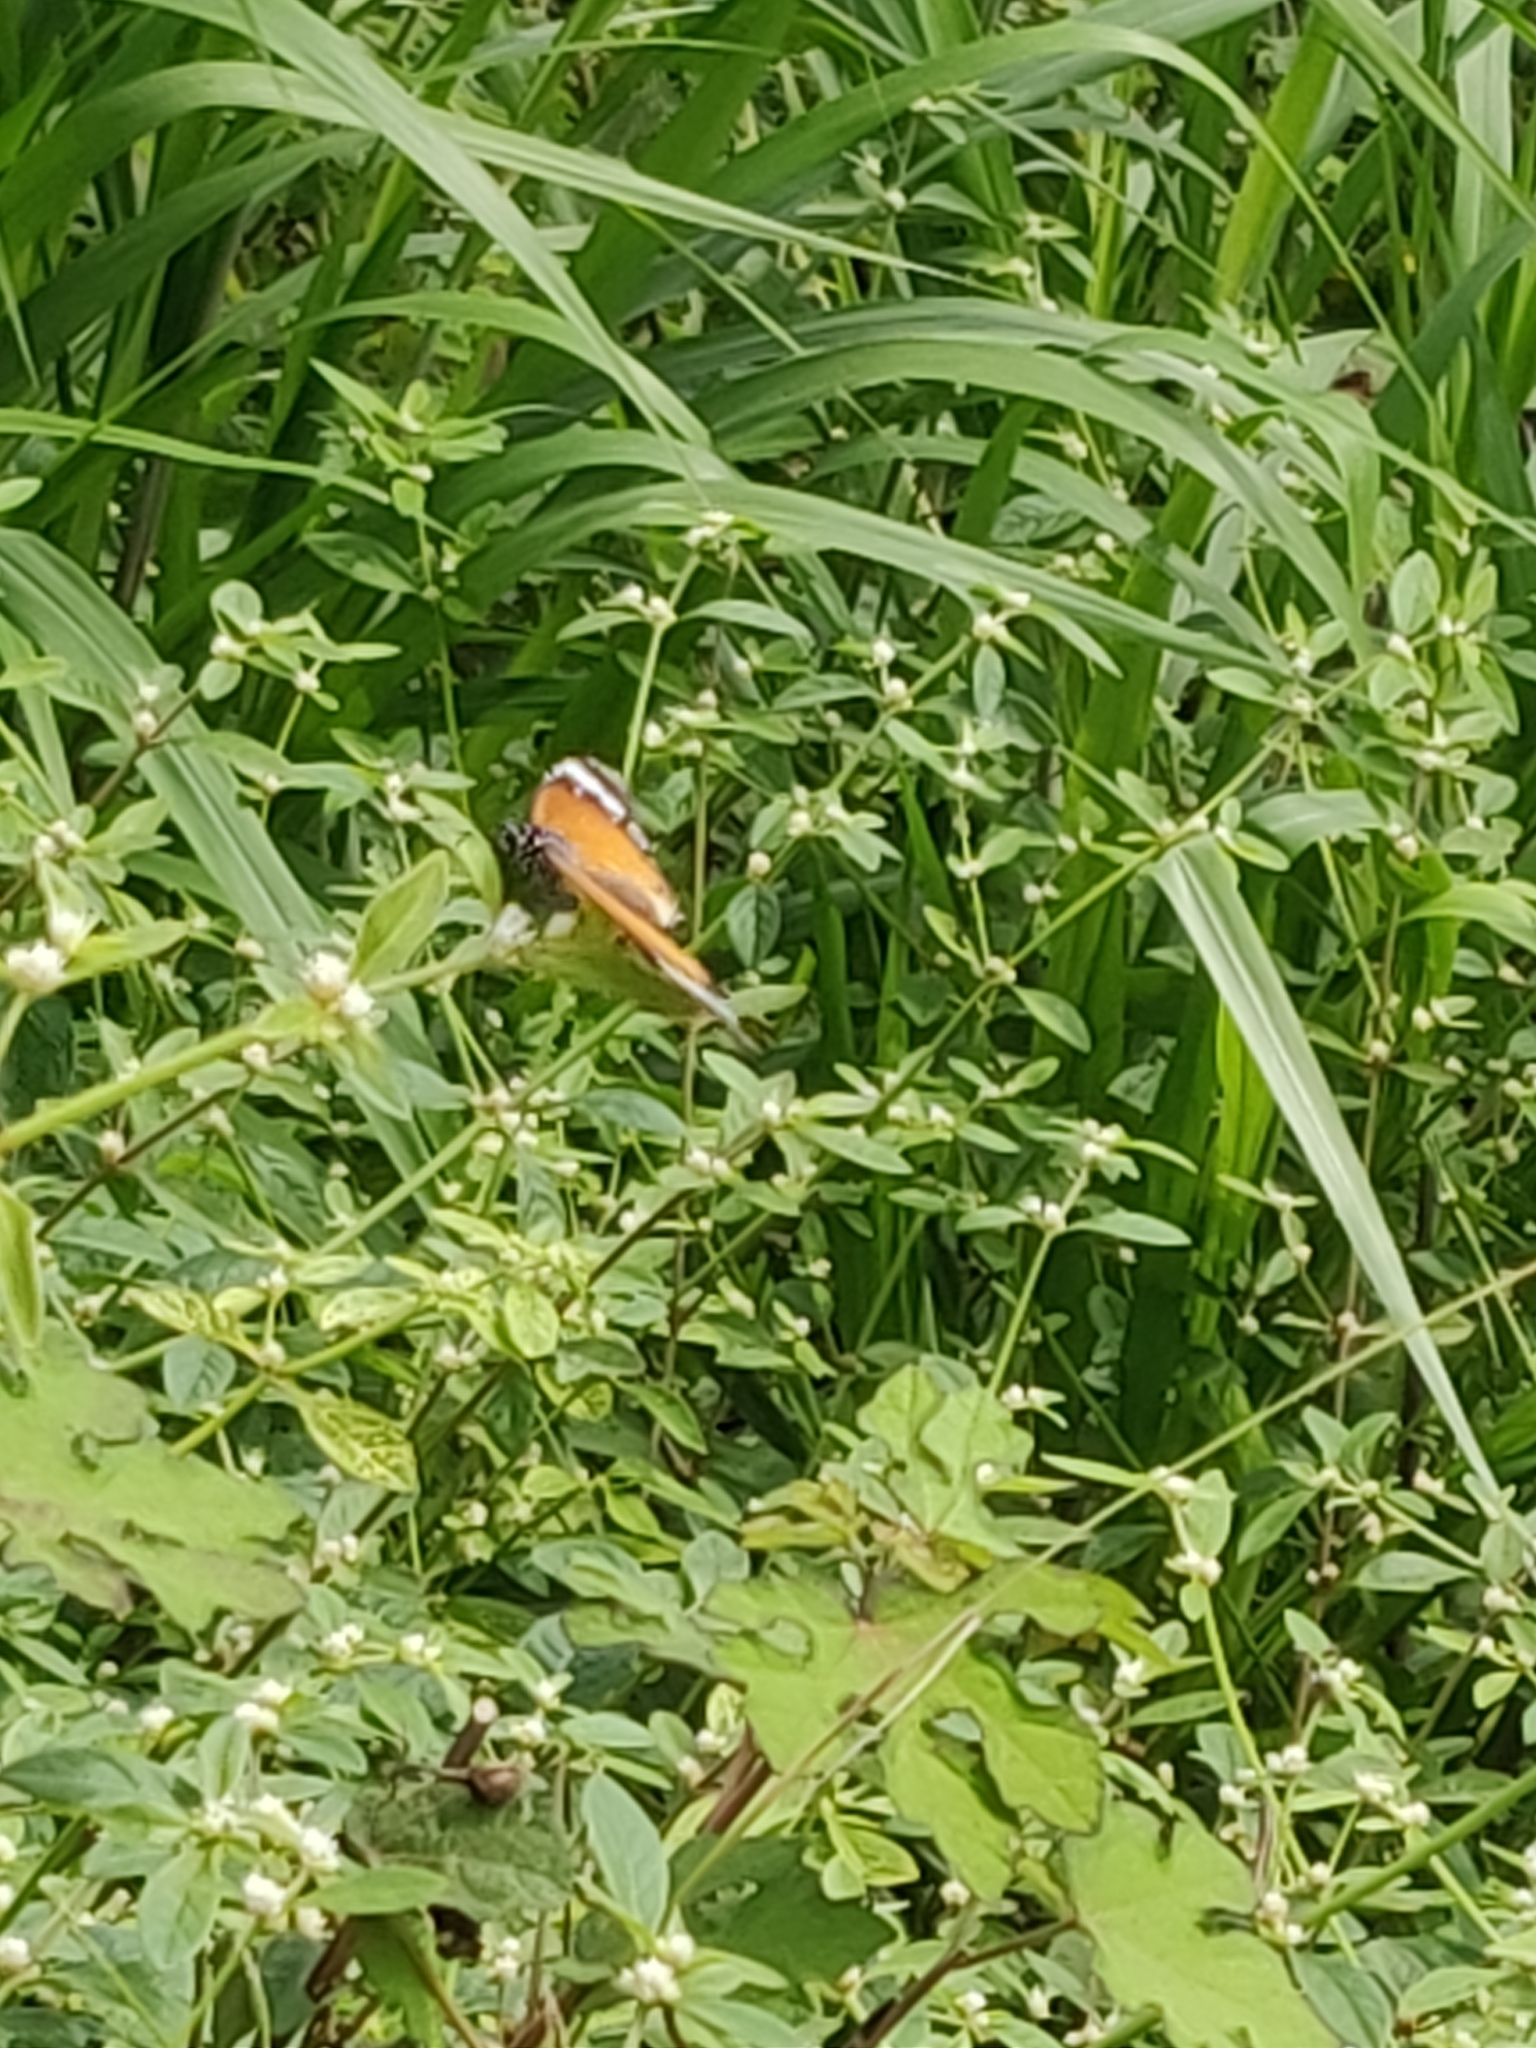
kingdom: Animalia
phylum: Arthropoda
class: Insecta
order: Lepidoptera
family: Nymphalidae
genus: Danaus
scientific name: Danaus chrysippus
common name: Plain tiger
